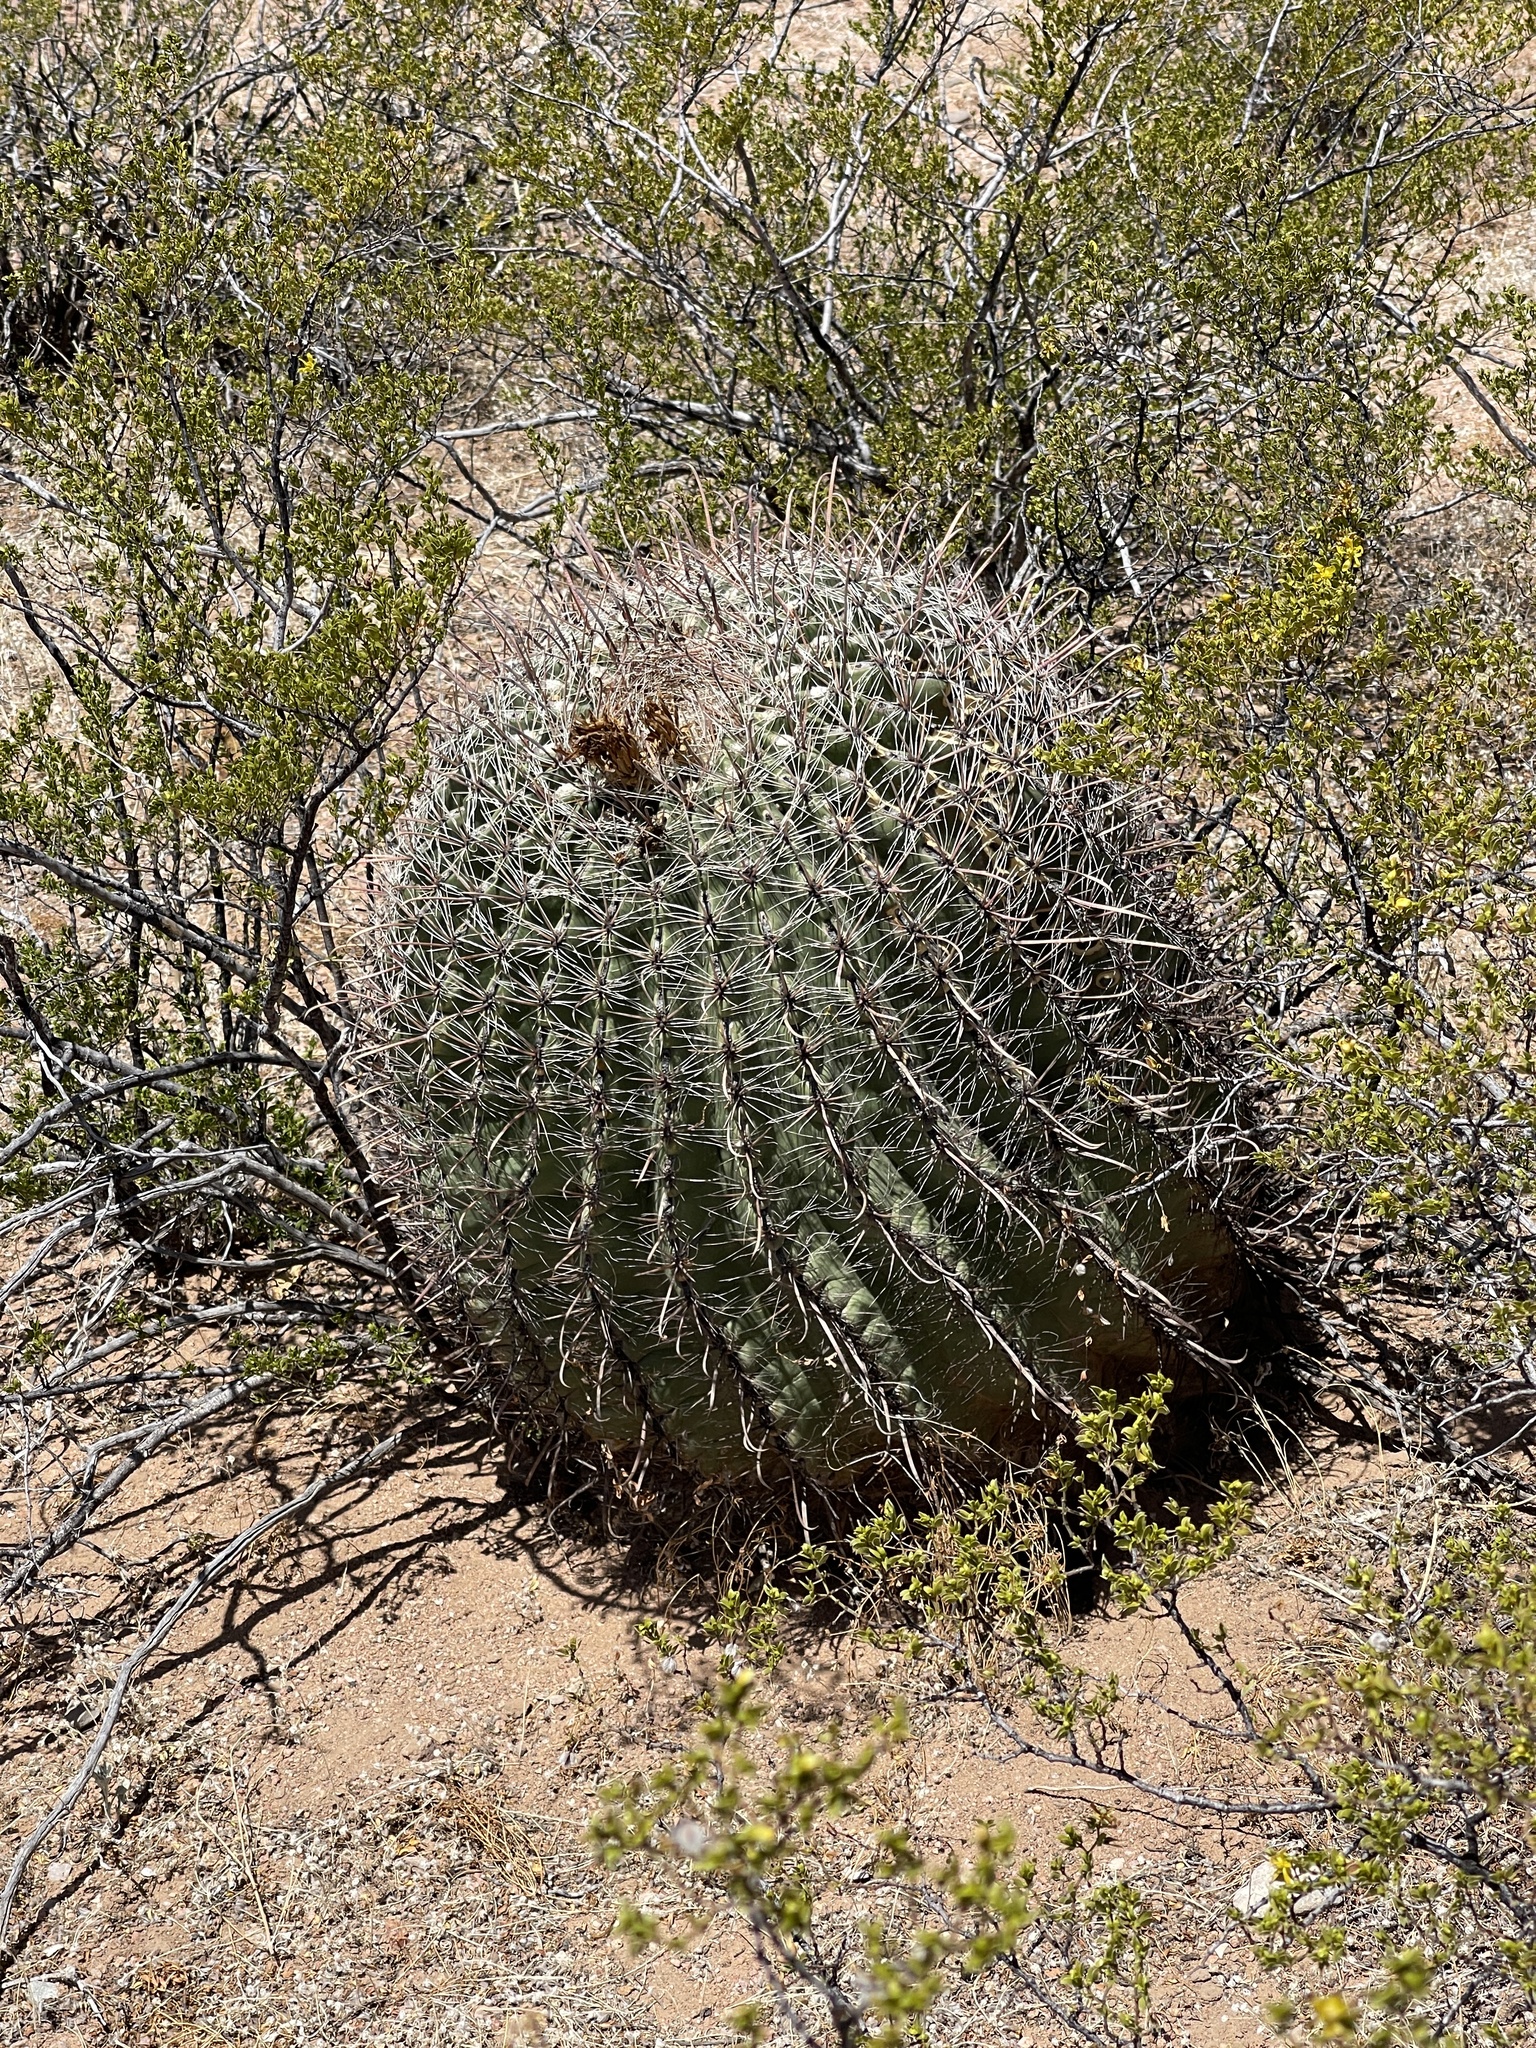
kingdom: Plantae
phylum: Tracheophyta
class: Magnoliopsida
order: Caryophyllales
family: Cactaceae
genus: Ferocactus
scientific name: Ferocactus wislizeni
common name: Candy barrel cactus
